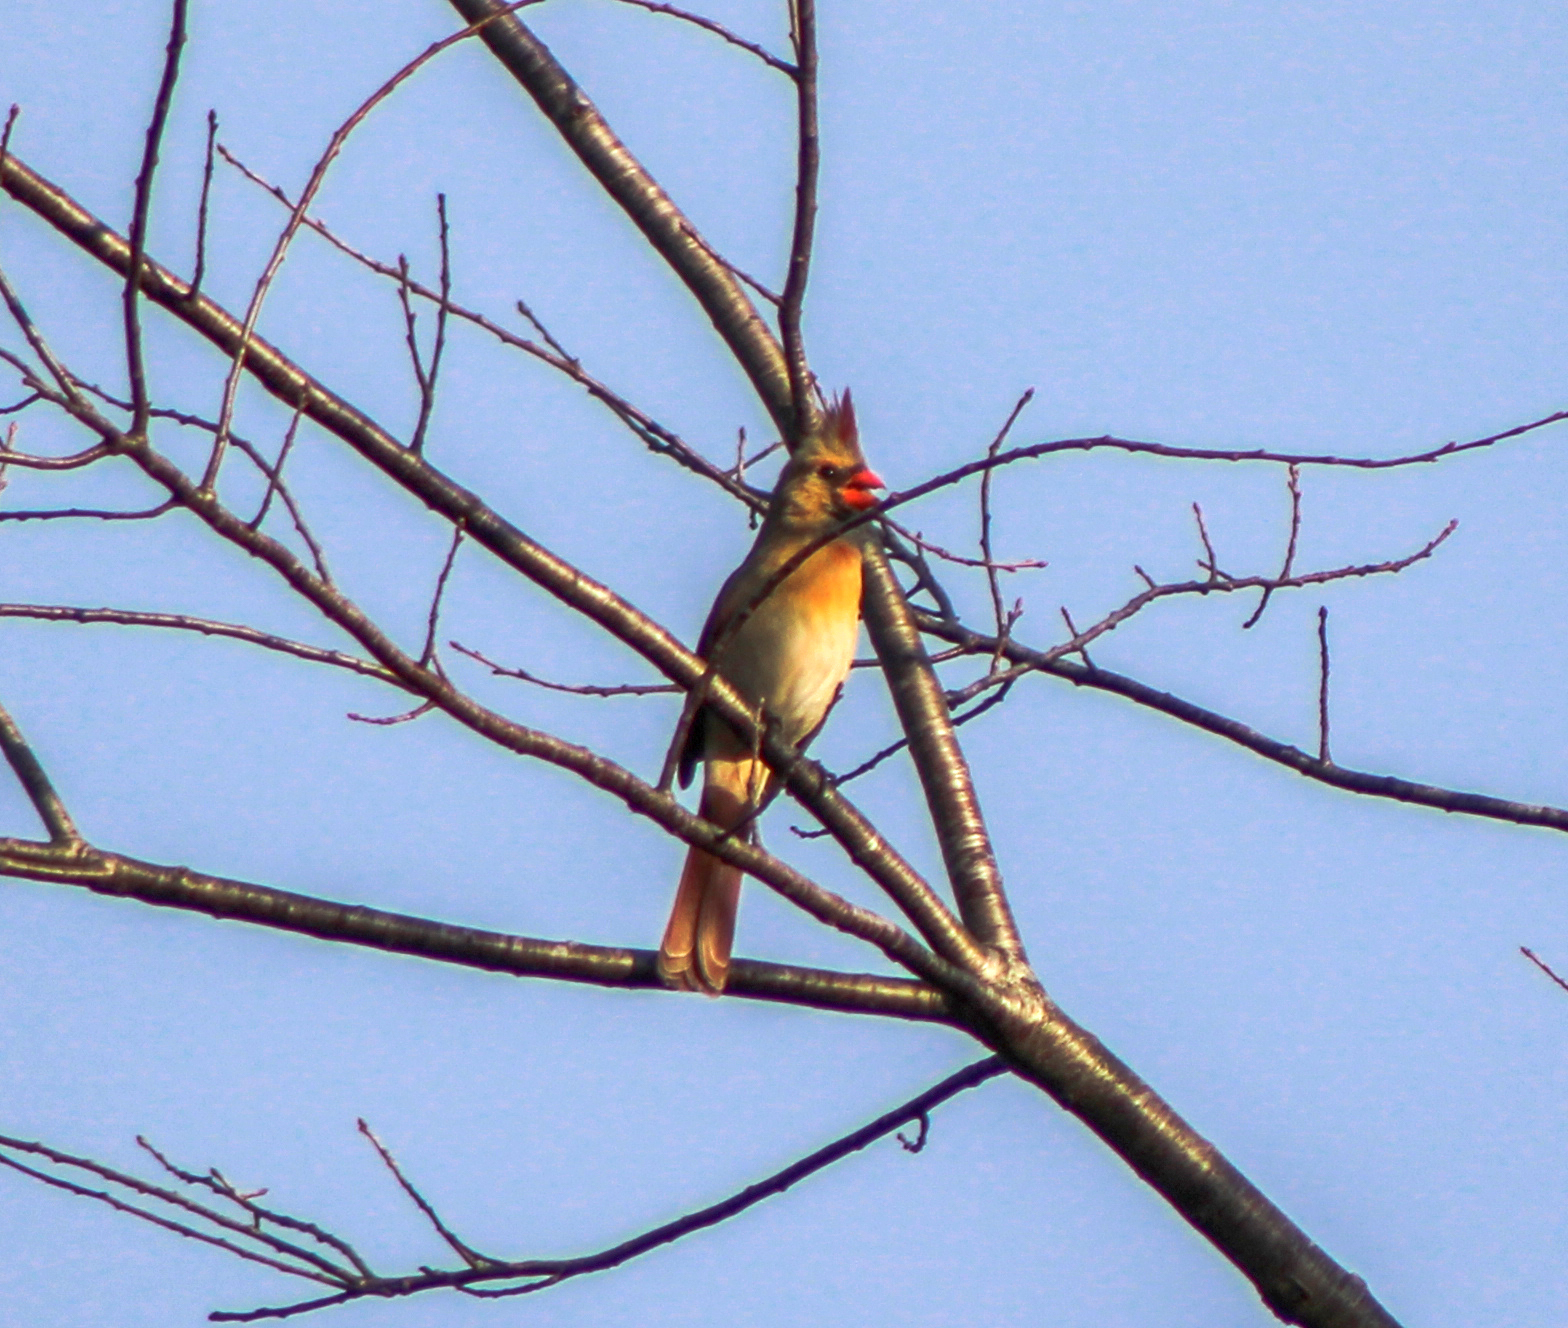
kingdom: Animalia
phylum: Chordata
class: Aves
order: Passeriformes
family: Cardinalidae
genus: Cardinalis
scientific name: Cardinalis cardinalis
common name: Northern cardinal
